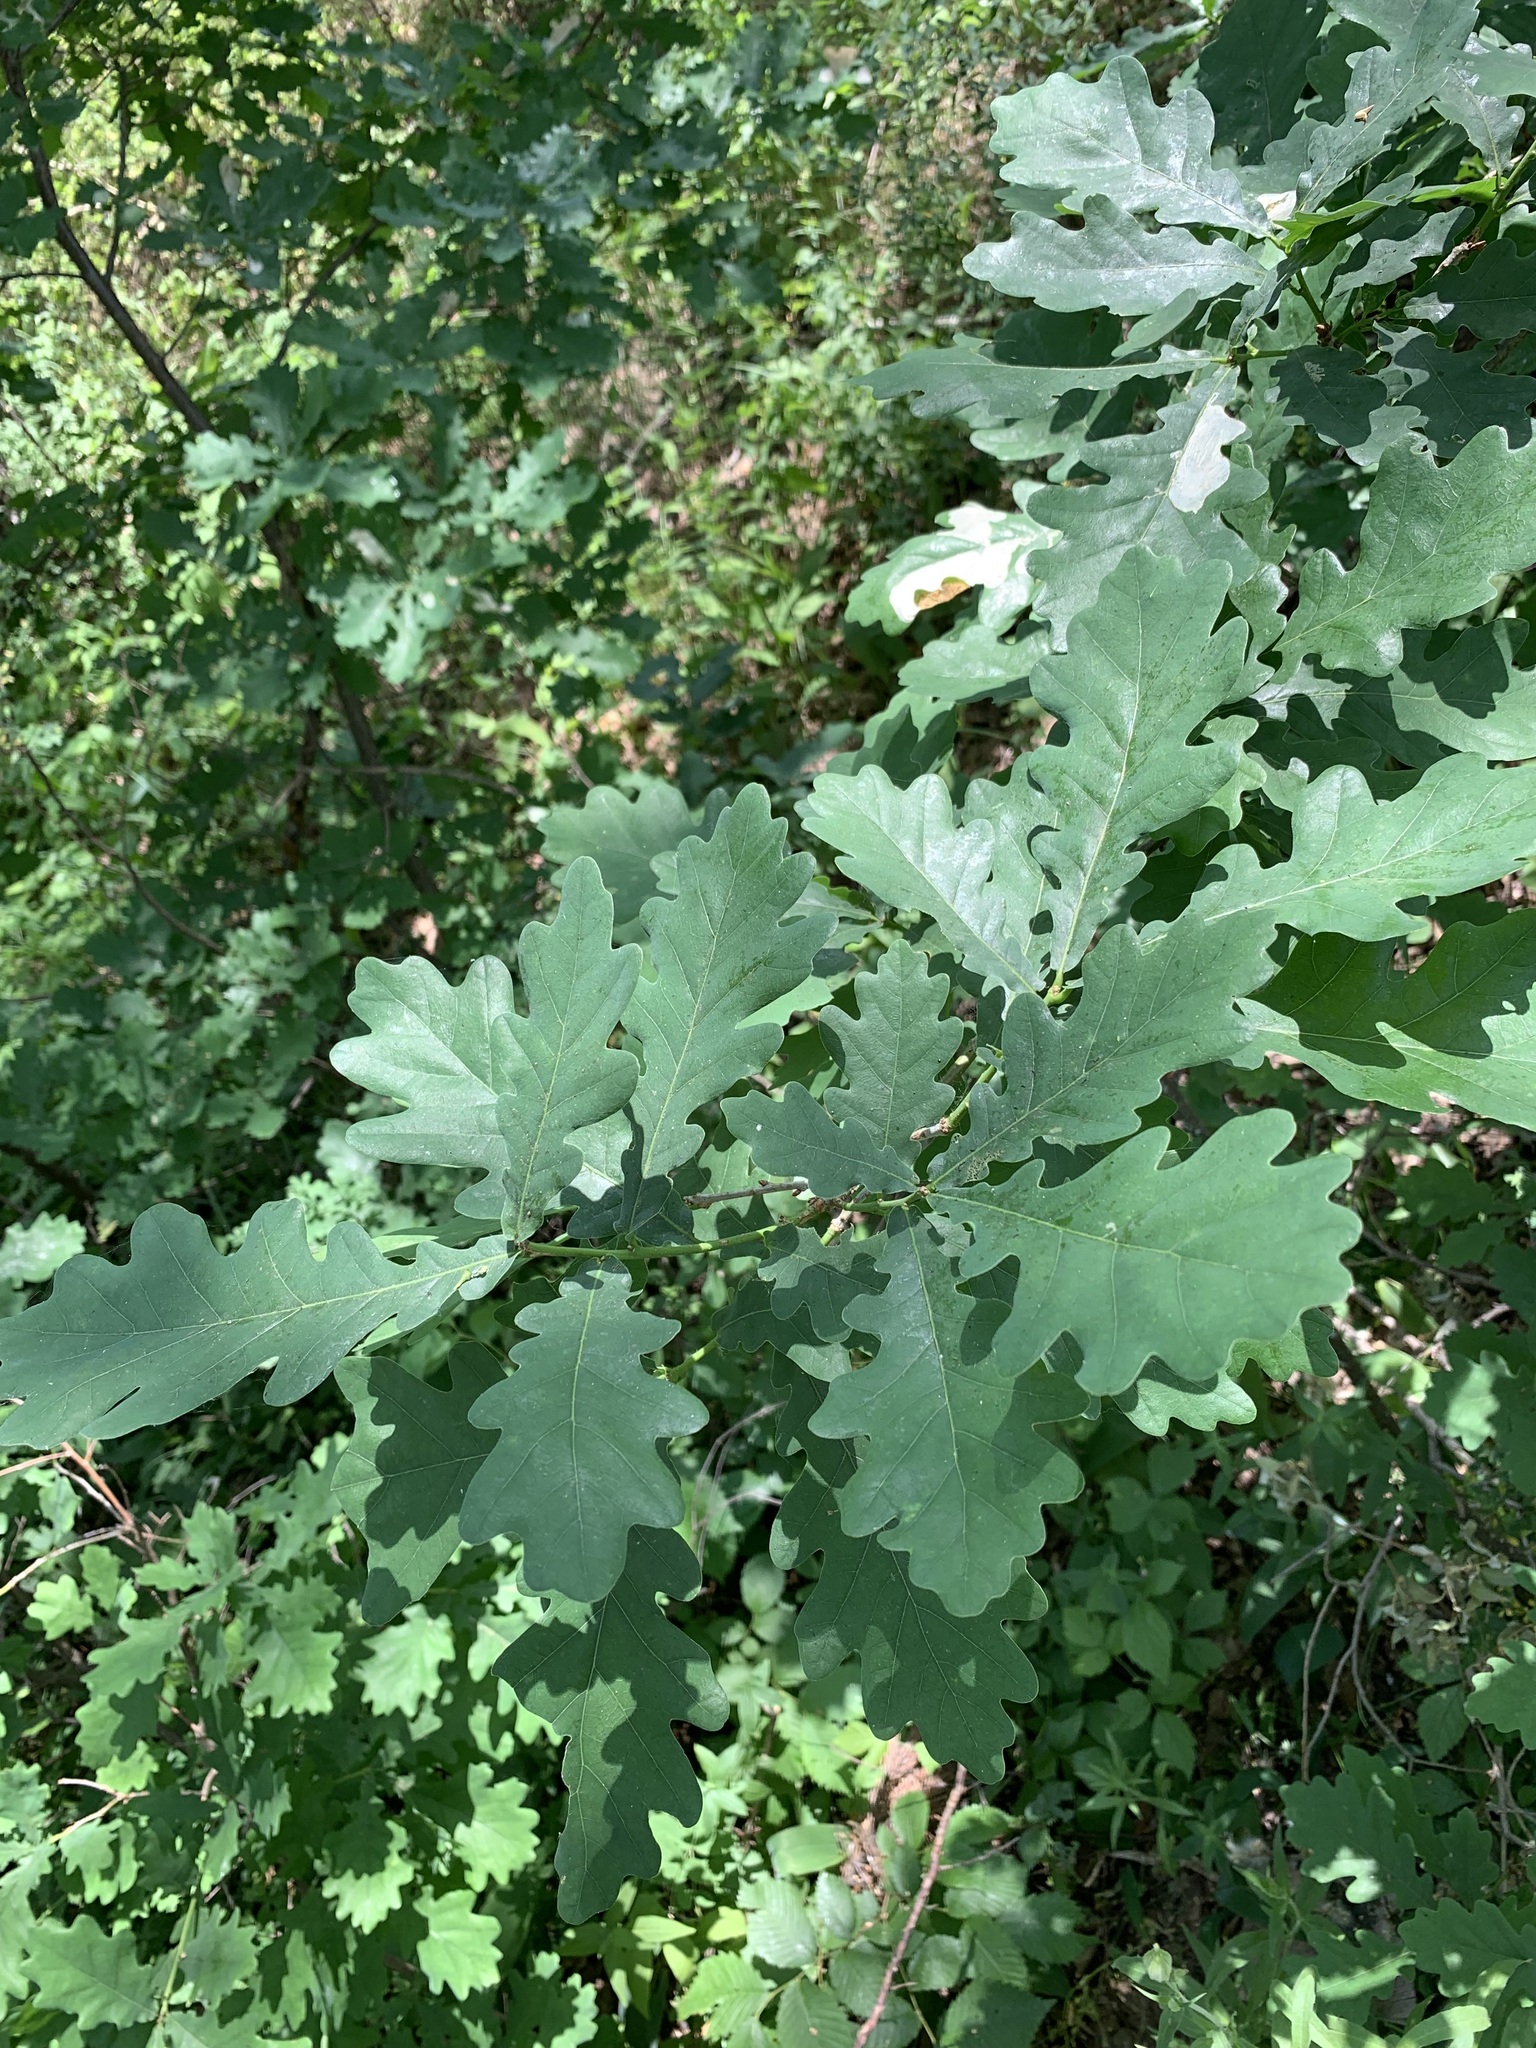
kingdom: Plantae
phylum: Tracheophyta
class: Magnoliopsida
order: Fagales
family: Fagaceae
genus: Quercus
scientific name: Quercus robur
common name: Pedunculate oak
